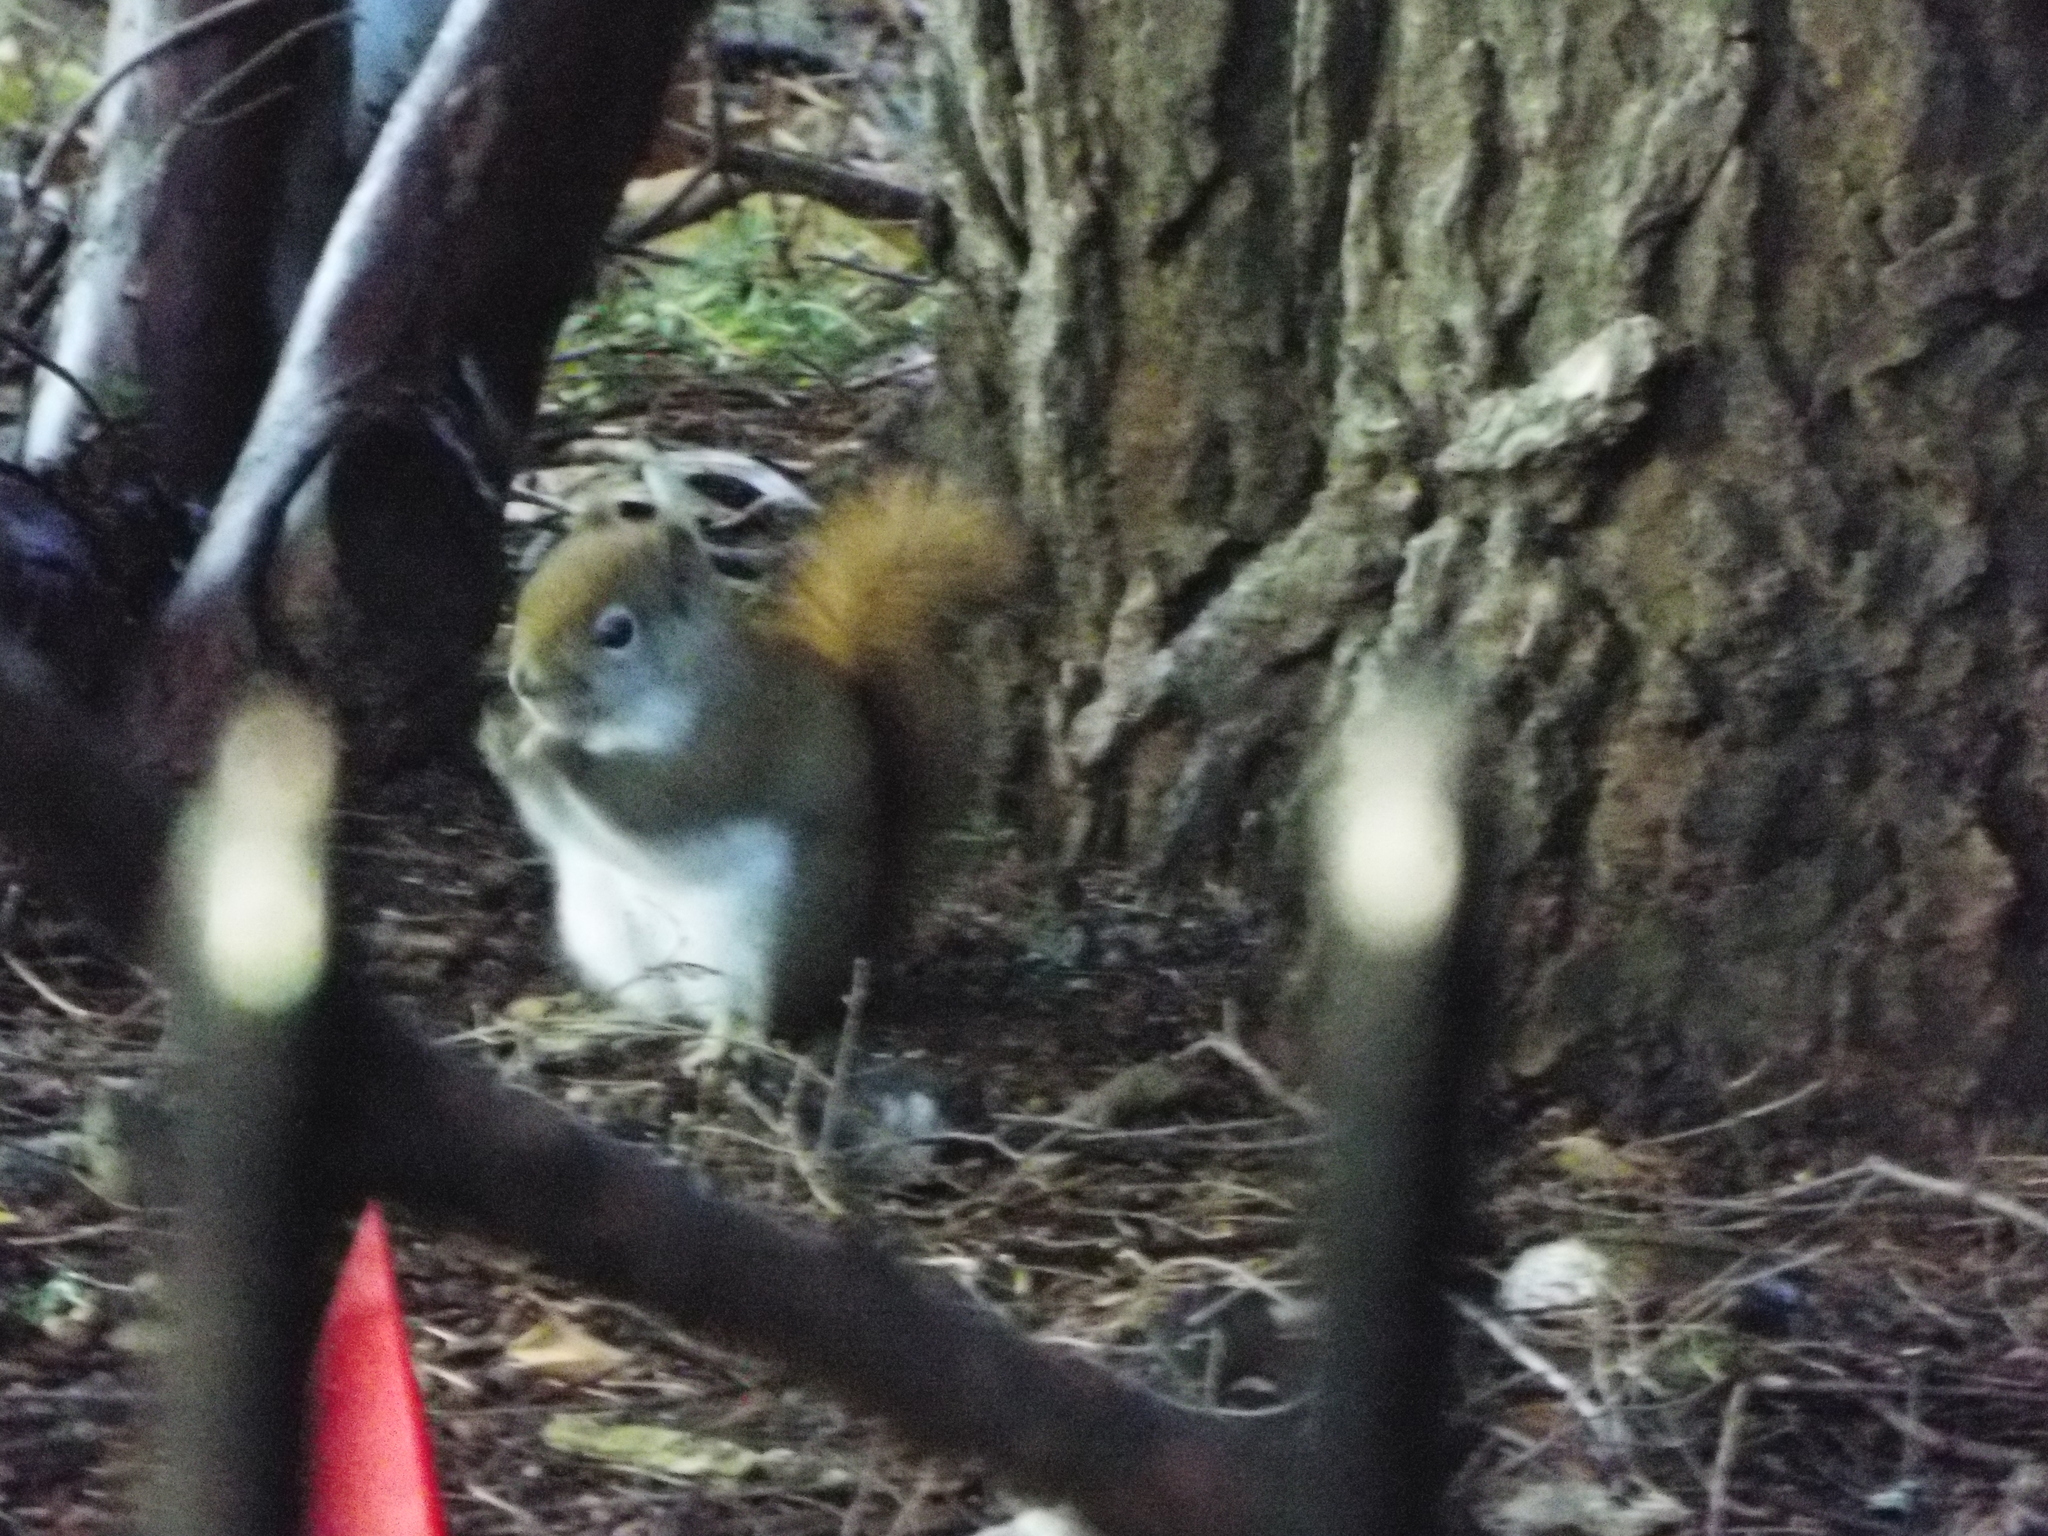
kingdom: Animalia
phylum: Chordata
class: Mammalia
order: Rodentia
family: Sciuridae
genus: Tamiasciurus
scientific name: Tamiasciurus hudsonicus
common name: Red squirrel
